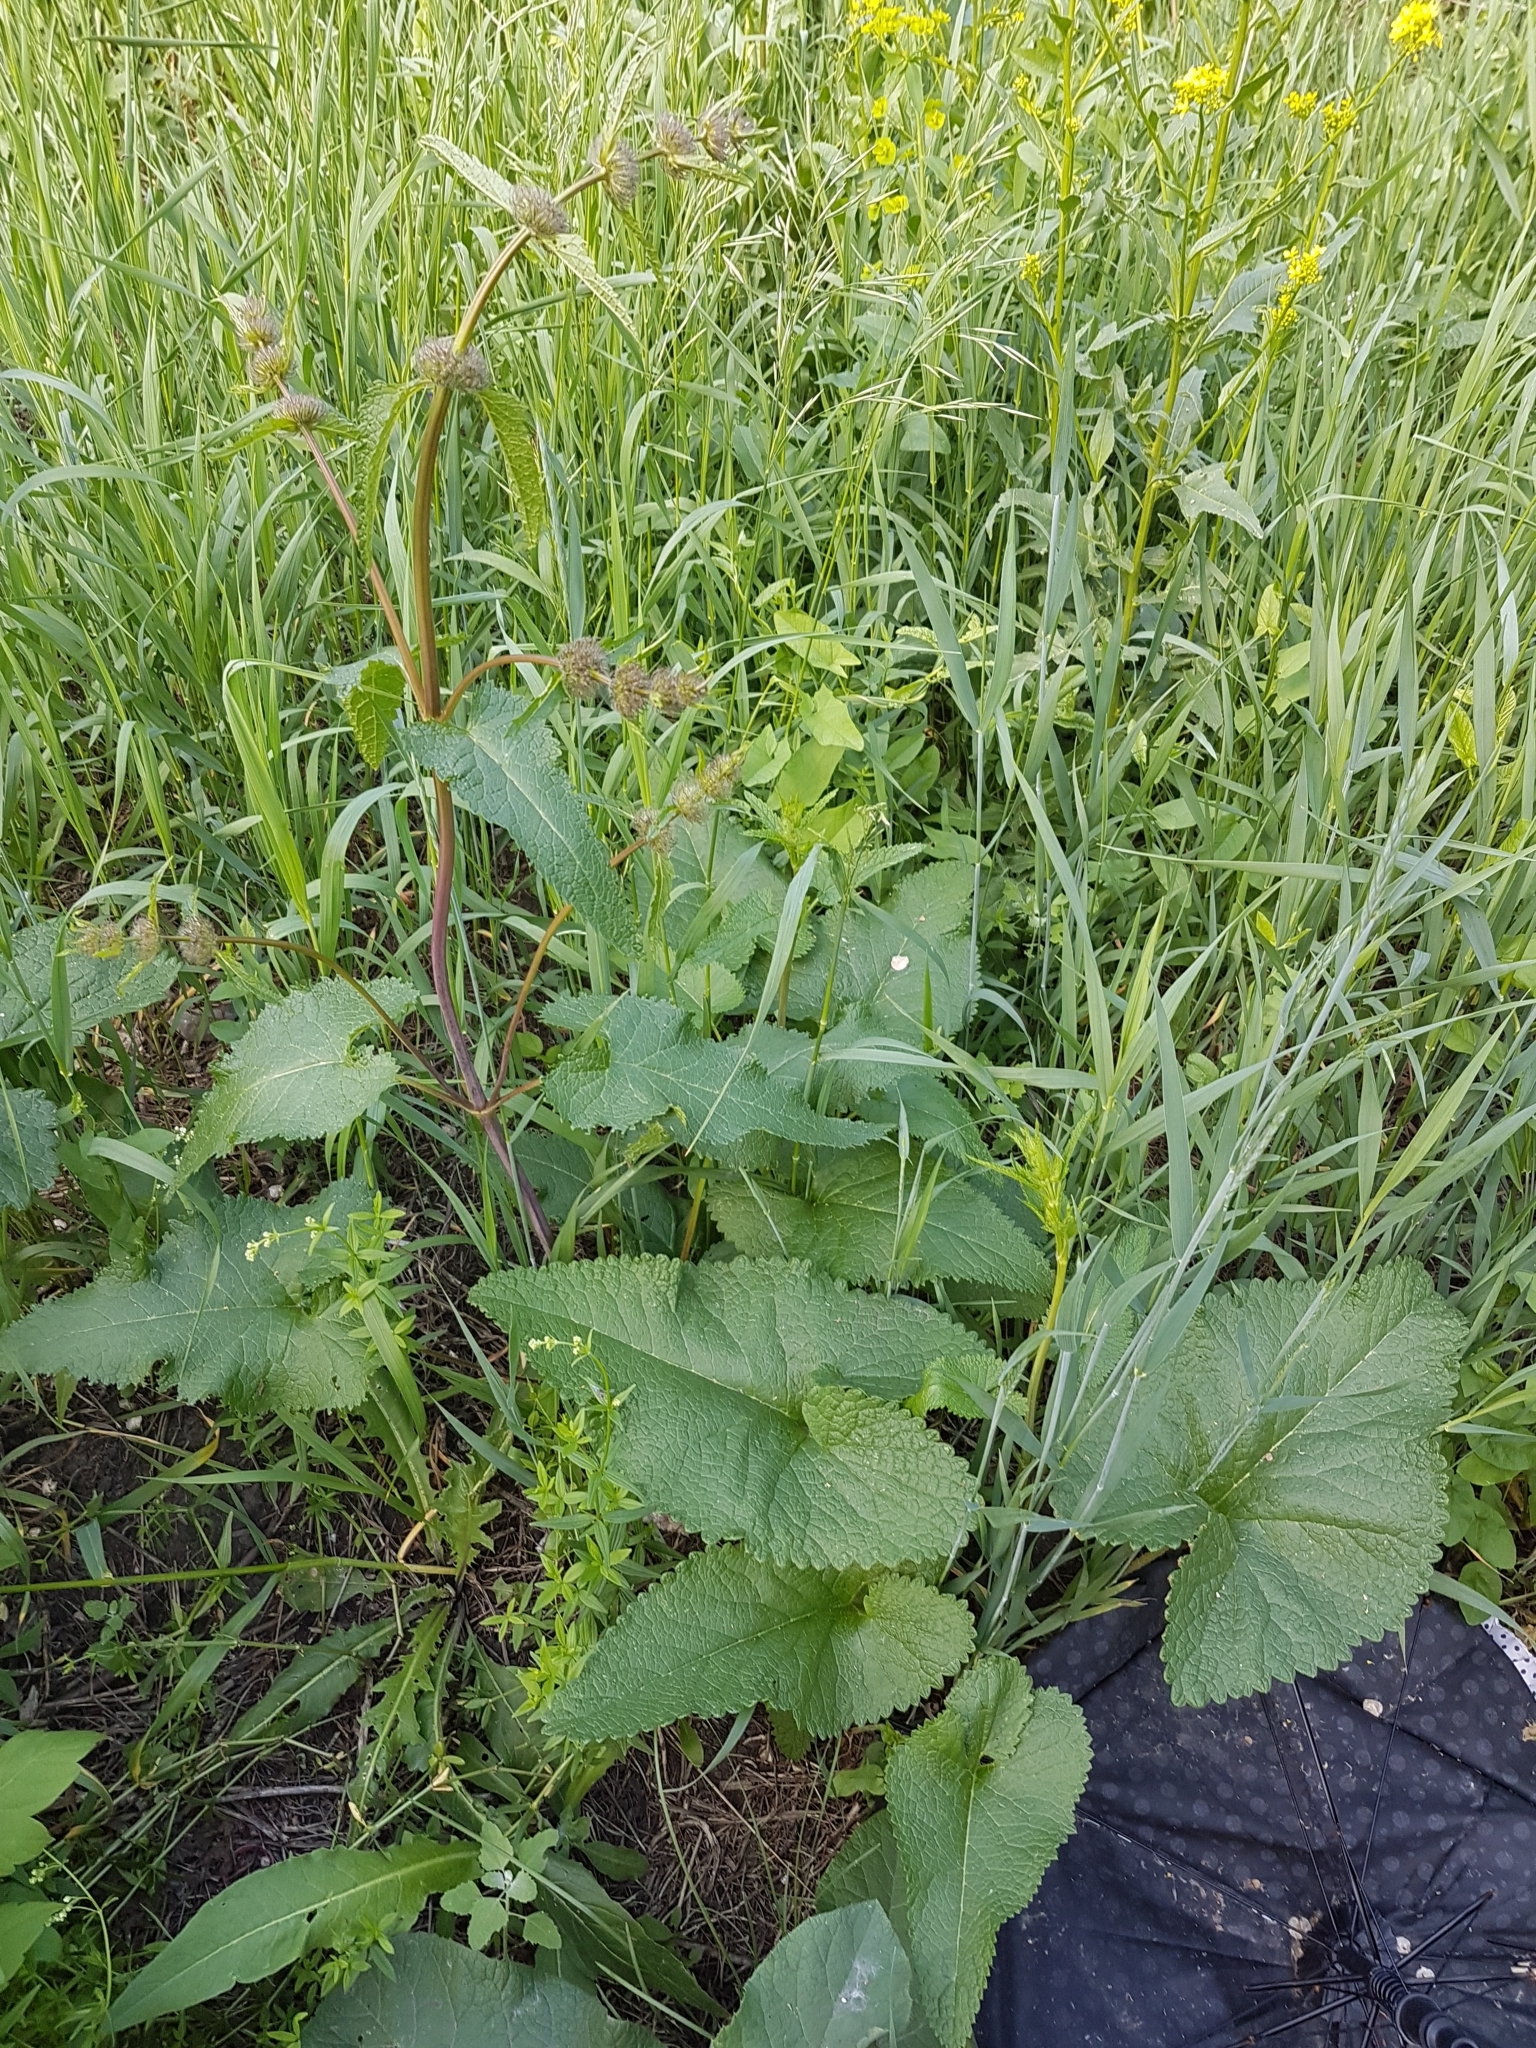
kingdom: Plantae
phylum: Tracheophyta
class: Magnoliopsida
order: Lamiales
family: Lamiaceae
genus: Phlomoides
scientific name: Phlomoides tuberosa
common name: Tuberous jerusalem sage
